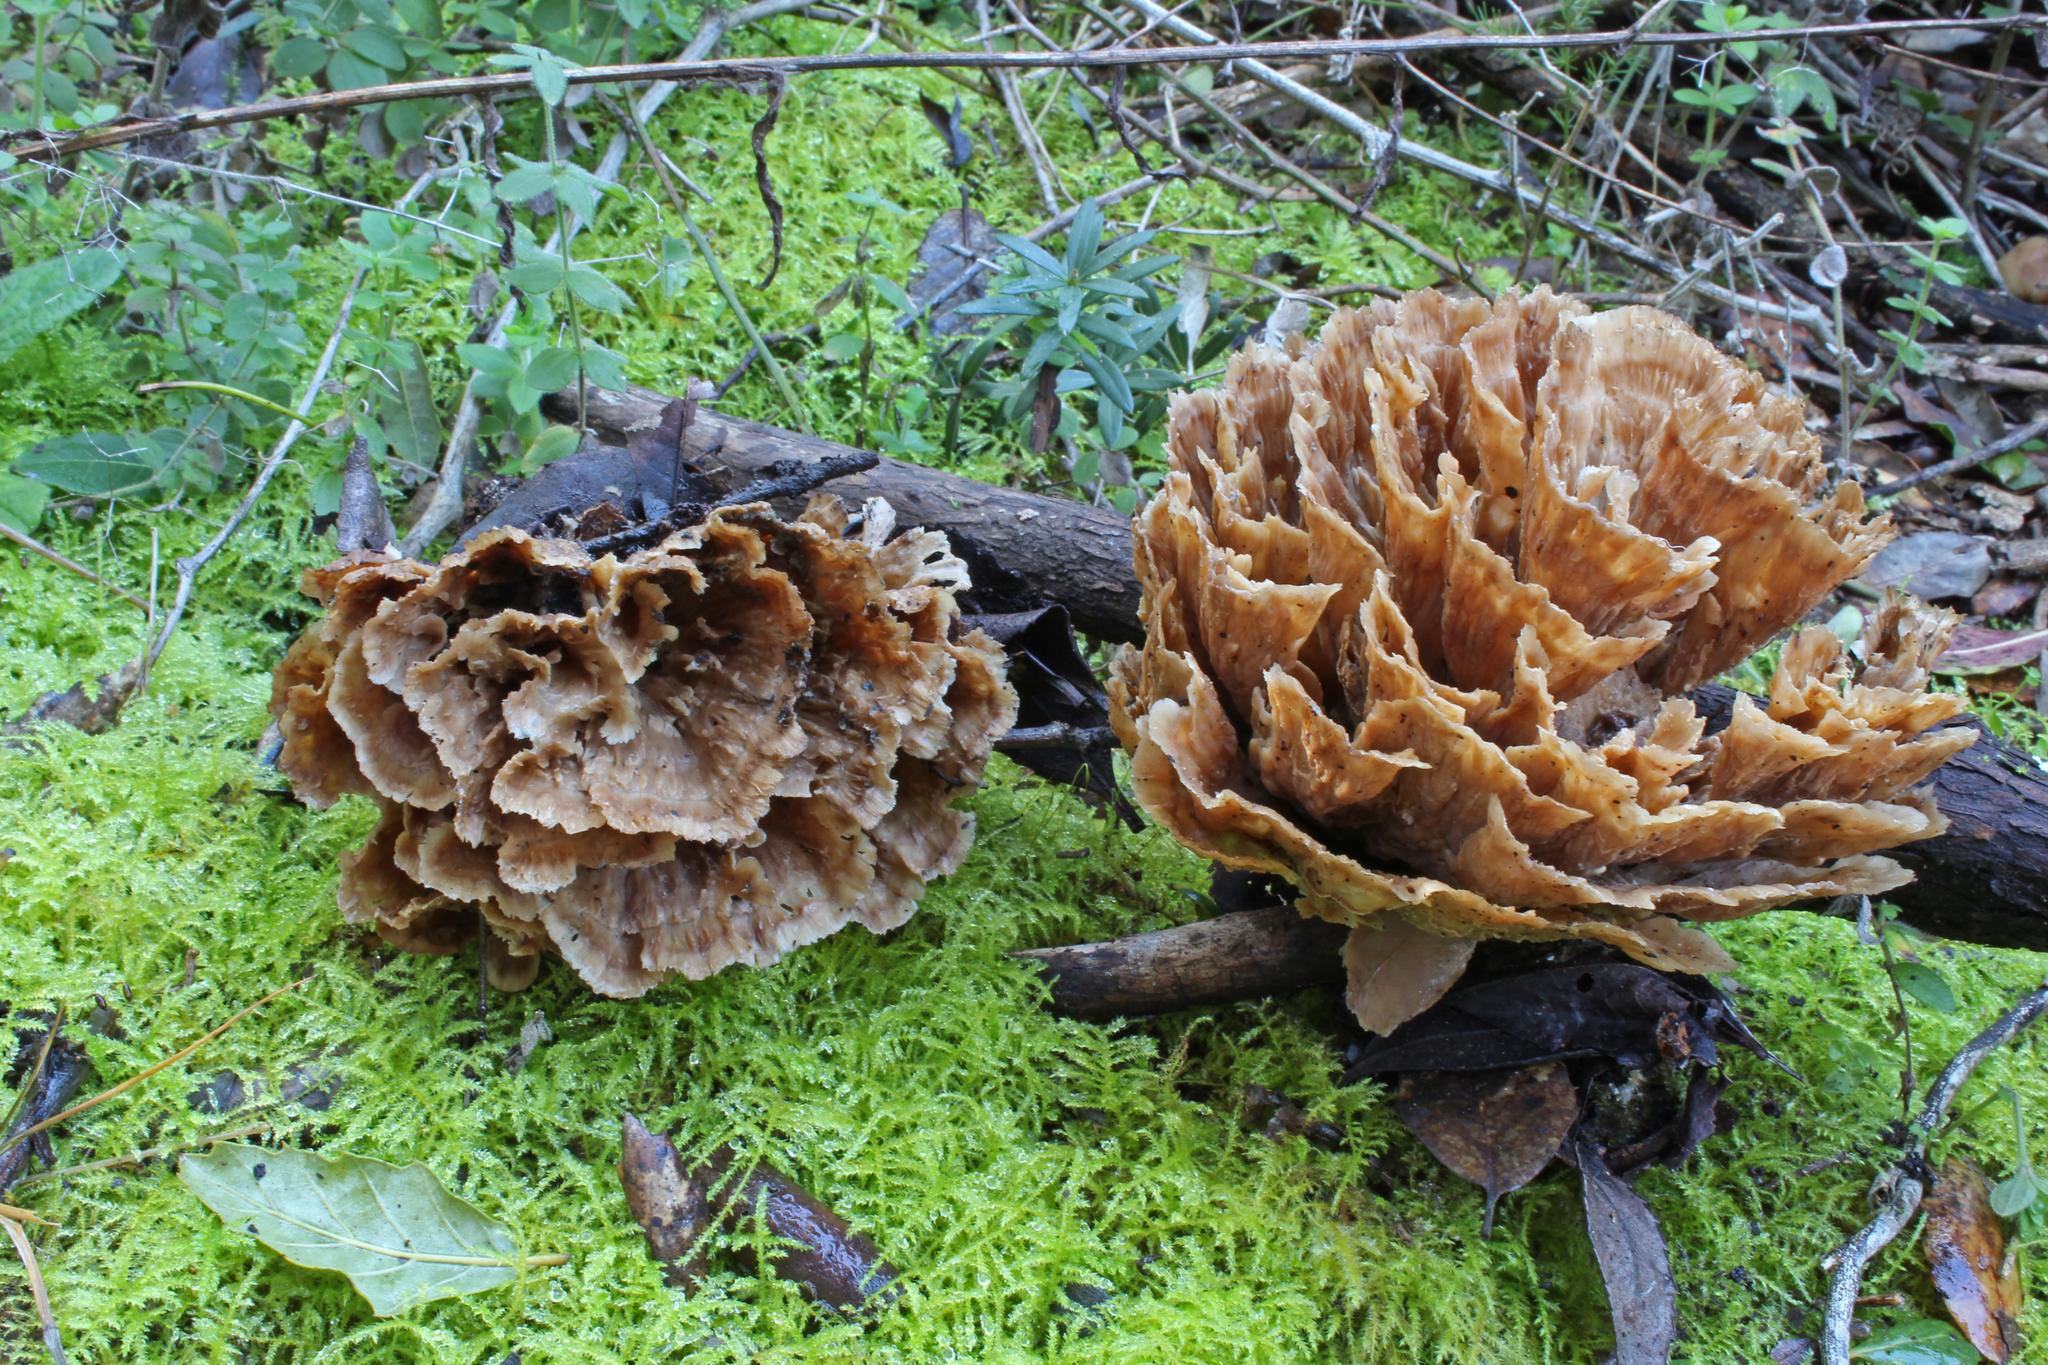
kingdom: Fungi
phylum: Basidiomycota
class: Agaricomycetes
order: Polyporales
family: Podoscyphaceae
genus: Podoscypha
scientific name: Podoscypha multizonata
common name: Zoned rosette
